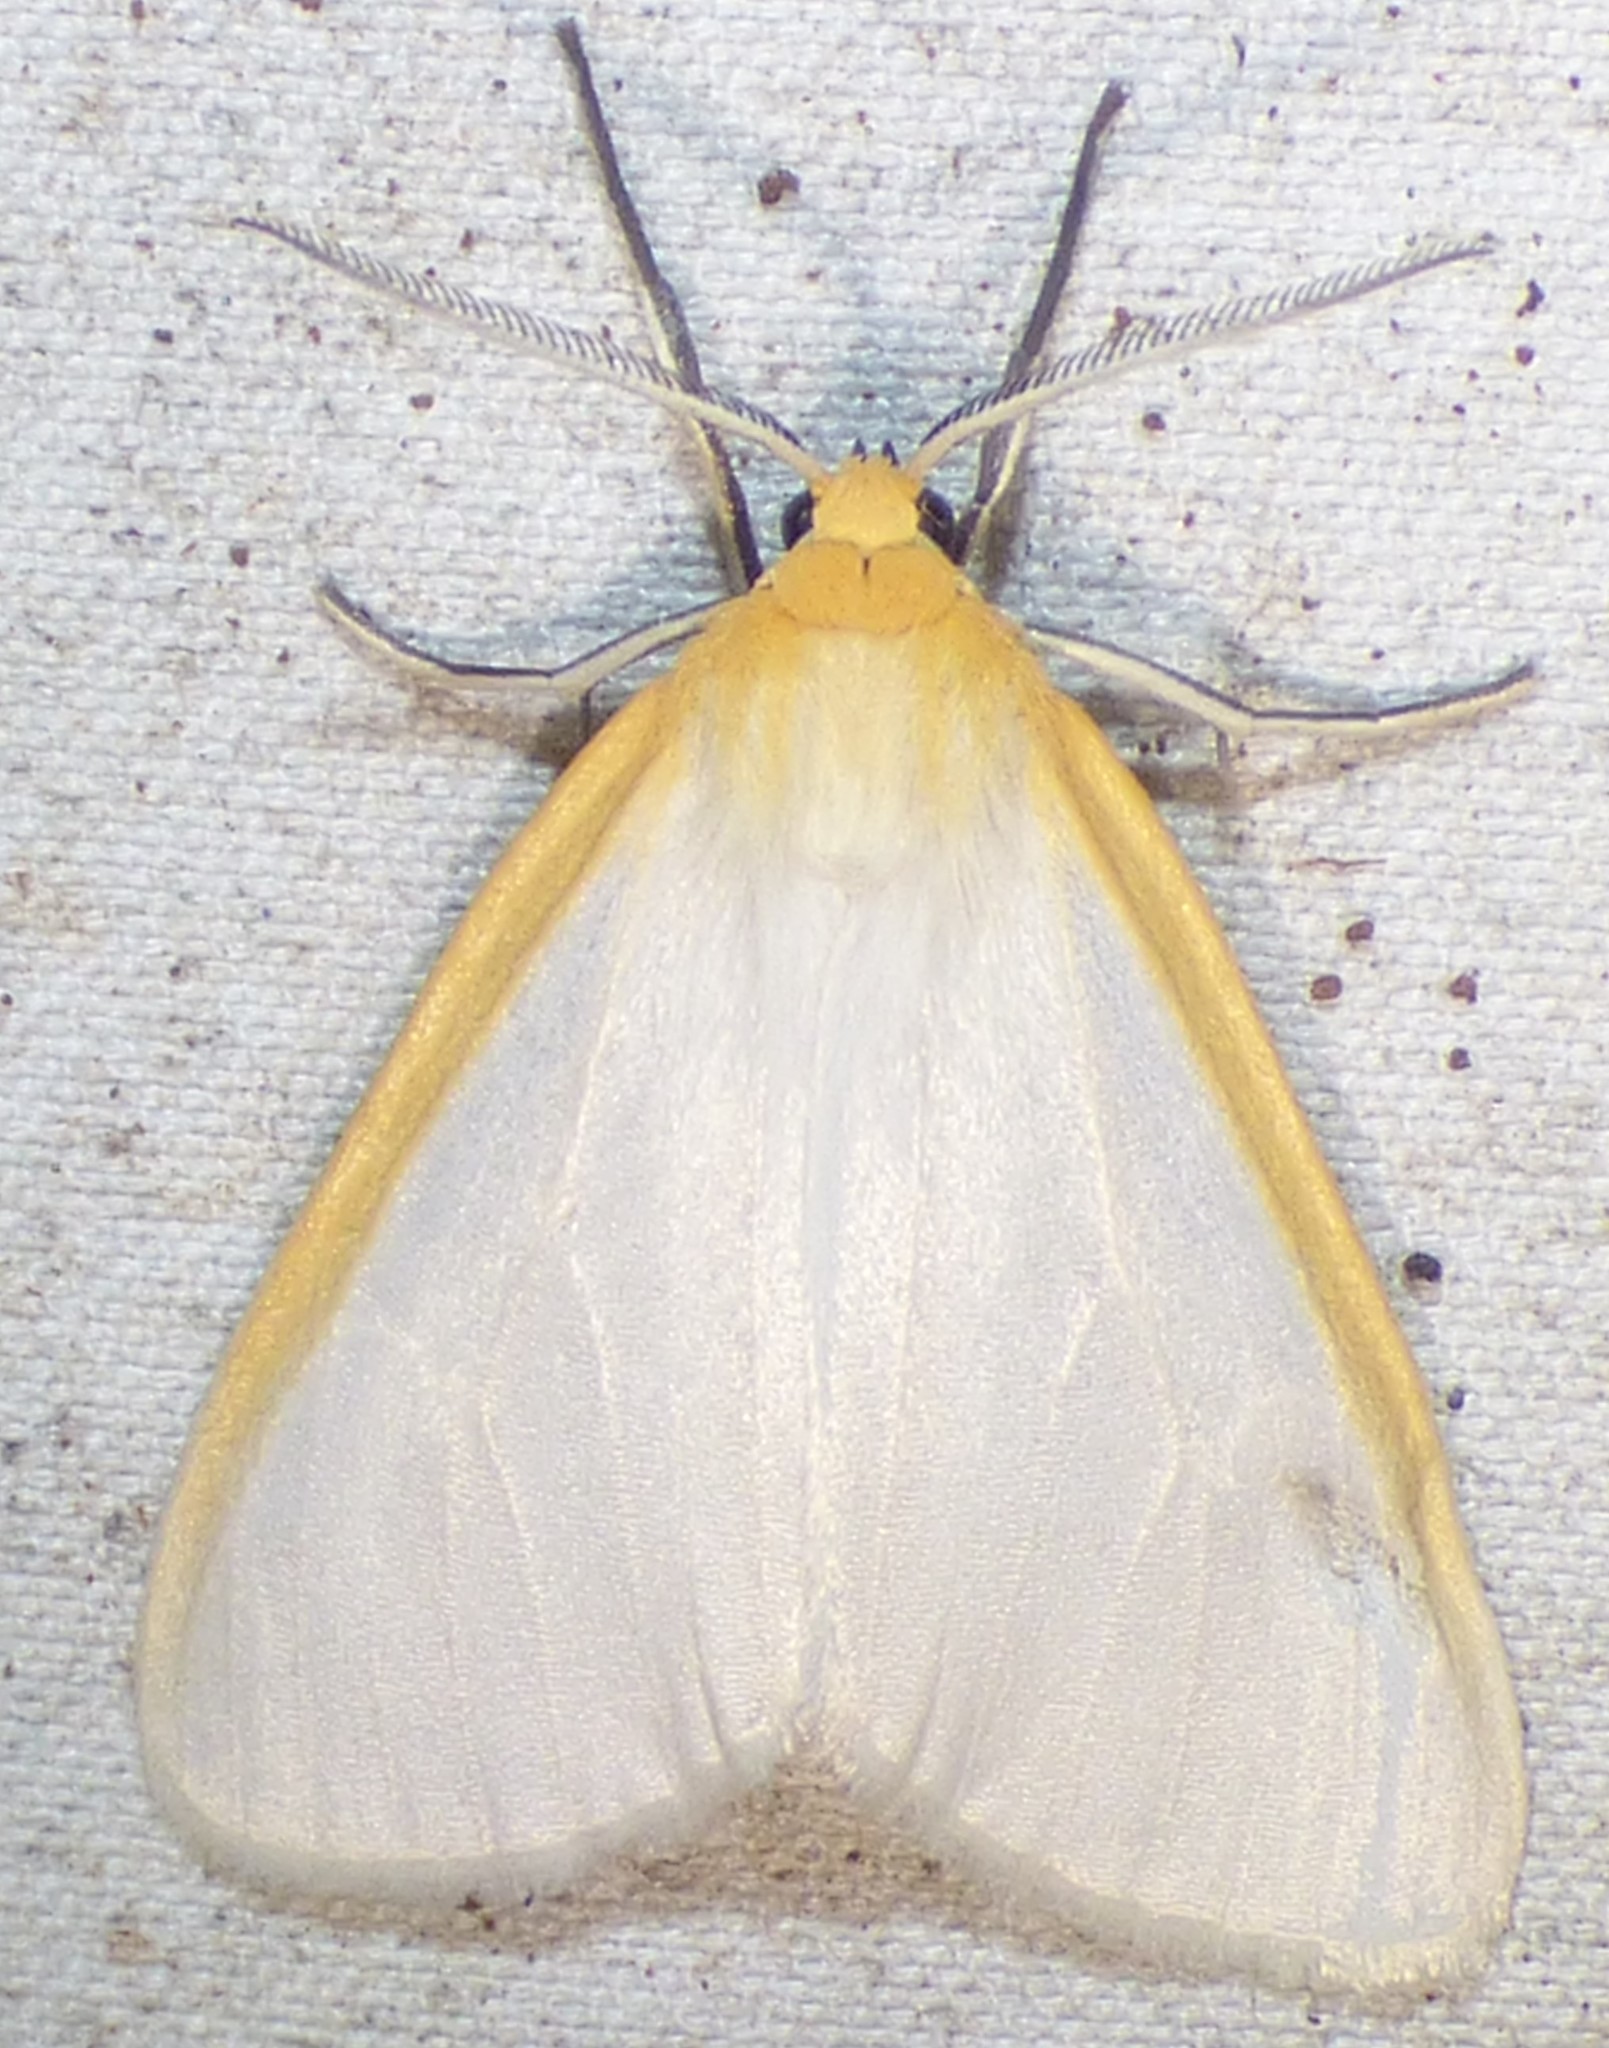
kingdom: Animalia
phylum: Arthropoda
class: Insecta
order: Lepidoptera
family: Erebidae
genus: Cycnia
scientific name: Cycnia tenera
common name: Delicate cycnia moth
